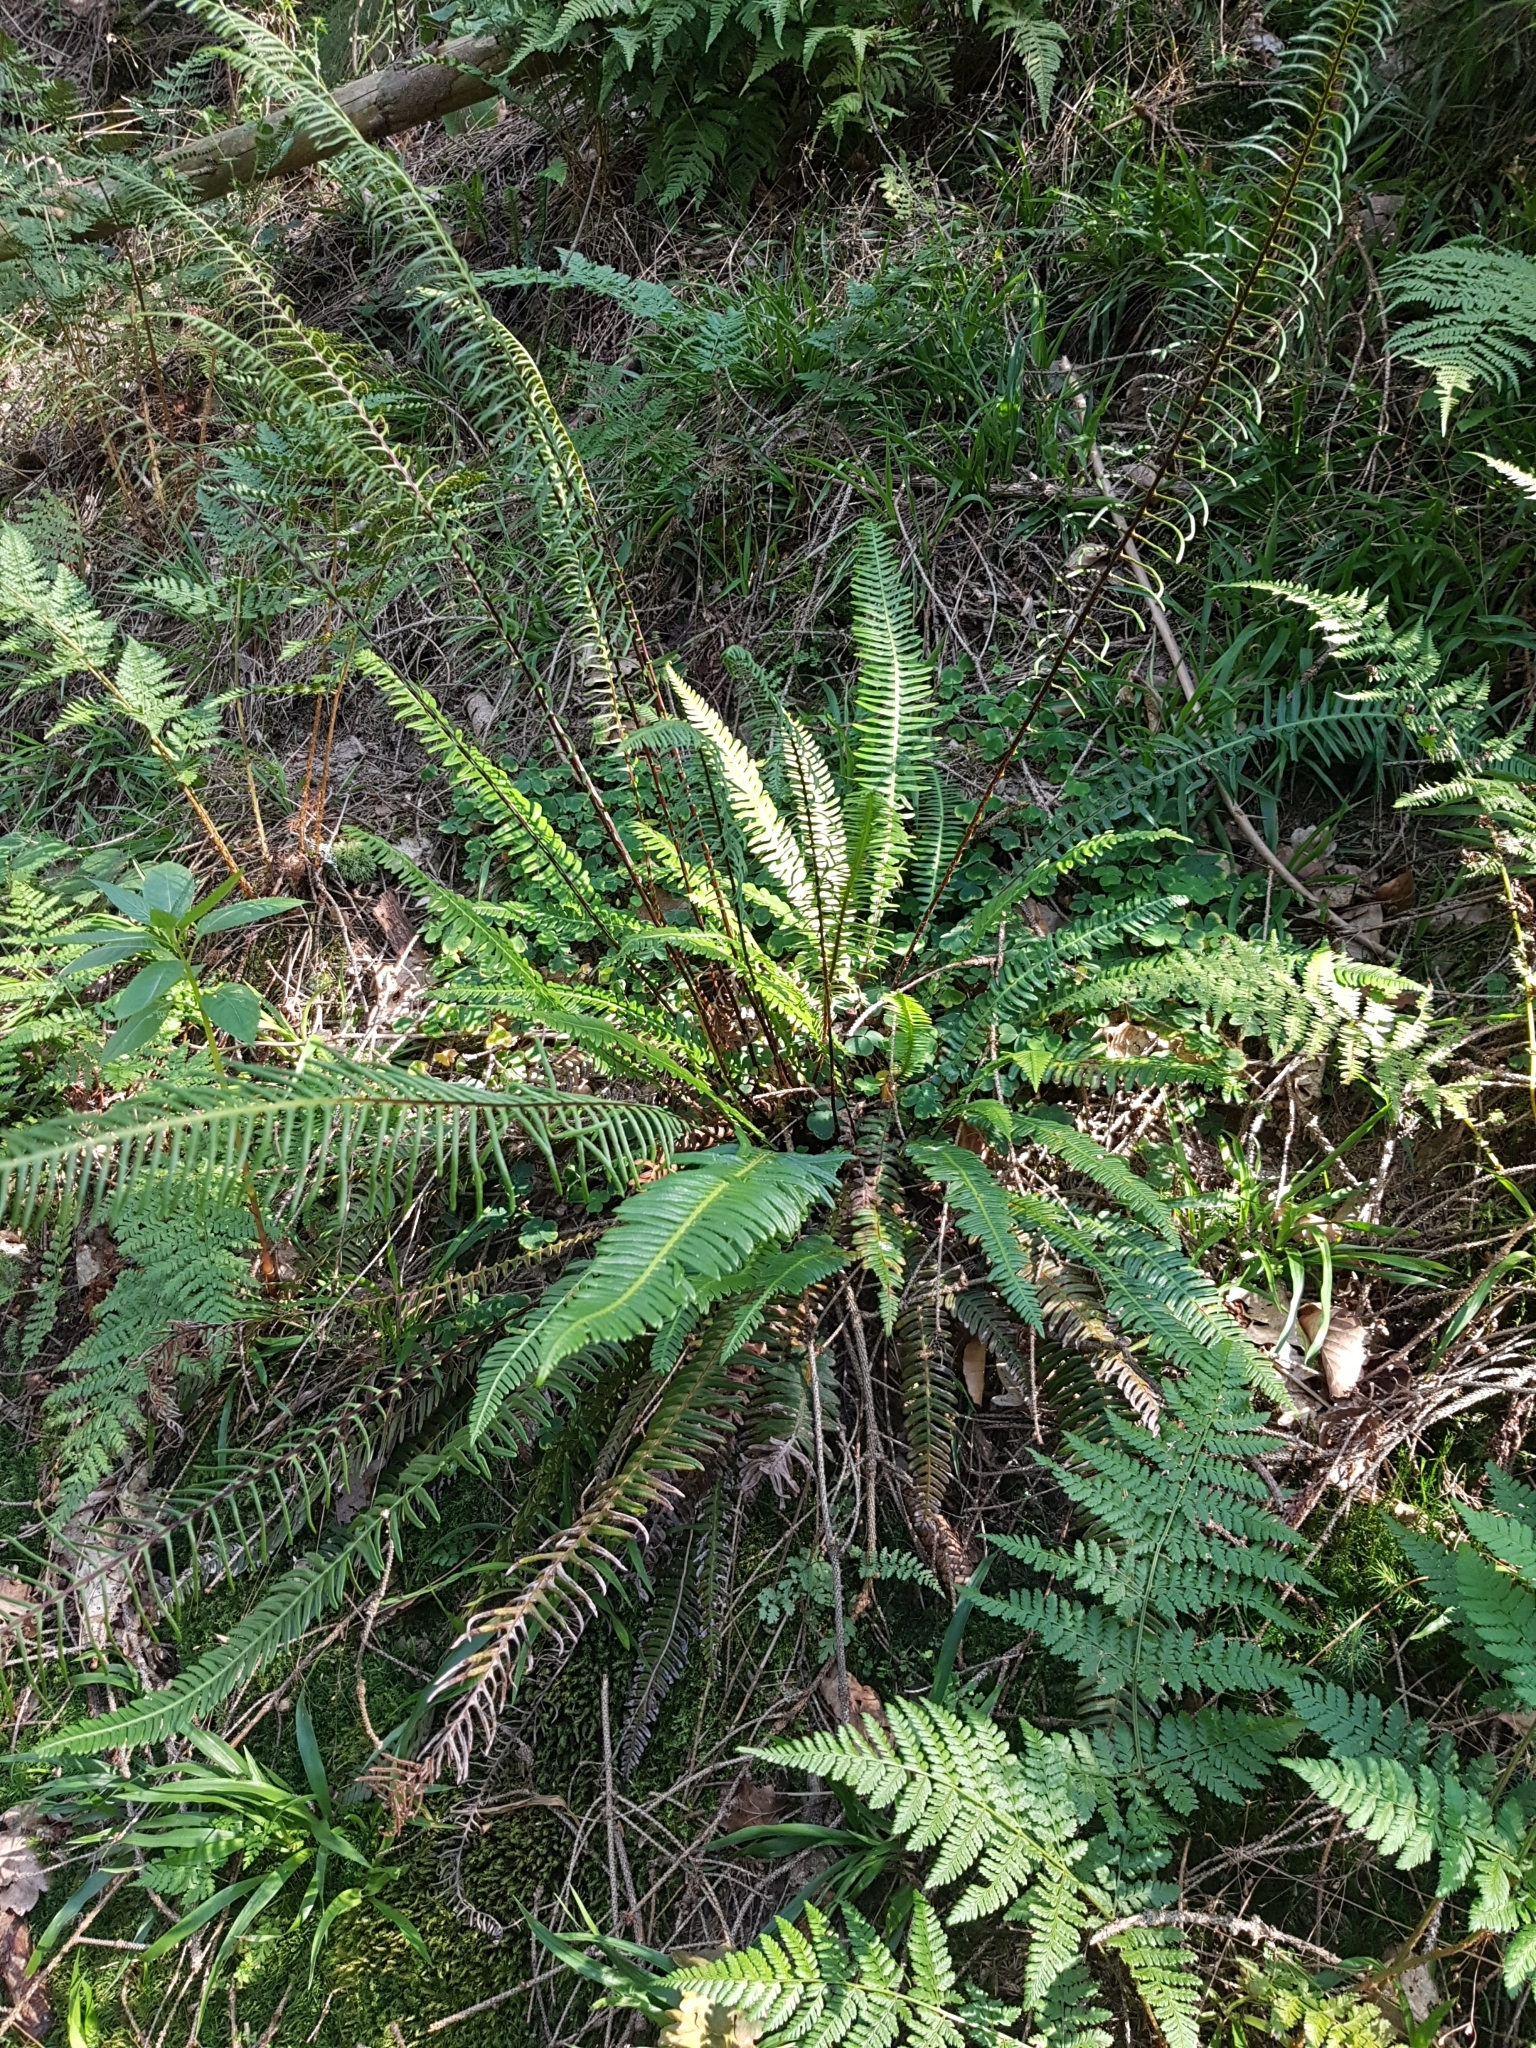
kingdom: Plantae
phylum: Tracheophyta
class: Polypodiopsida
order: Polypodiales
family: Blechnaceae
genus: Struthiopteris
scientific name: Struthiopteris spicant
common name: Deer fern
